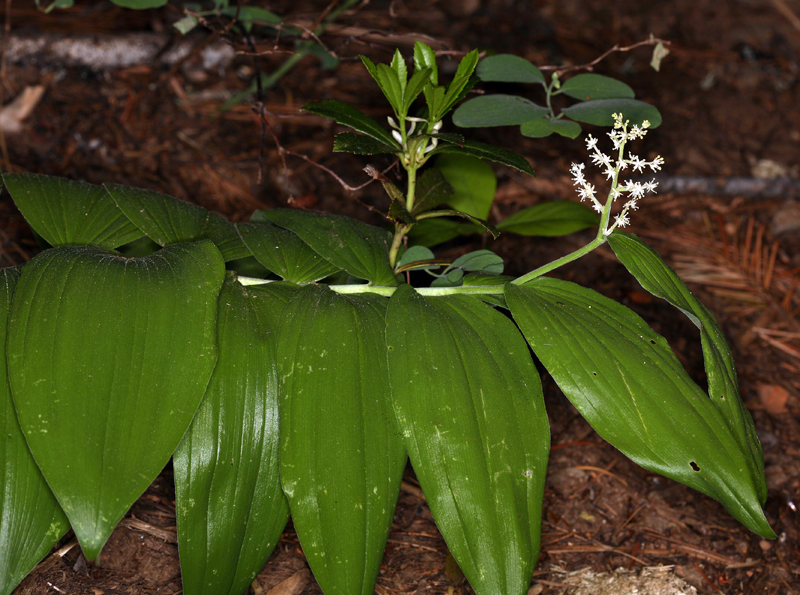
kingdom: Plantae
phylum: Tracheophyta
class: Liliopsida
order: Asparagales
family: Asparagaceae
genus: Maianthemum
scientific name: Maianthemum racemosum
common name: False spikenard
